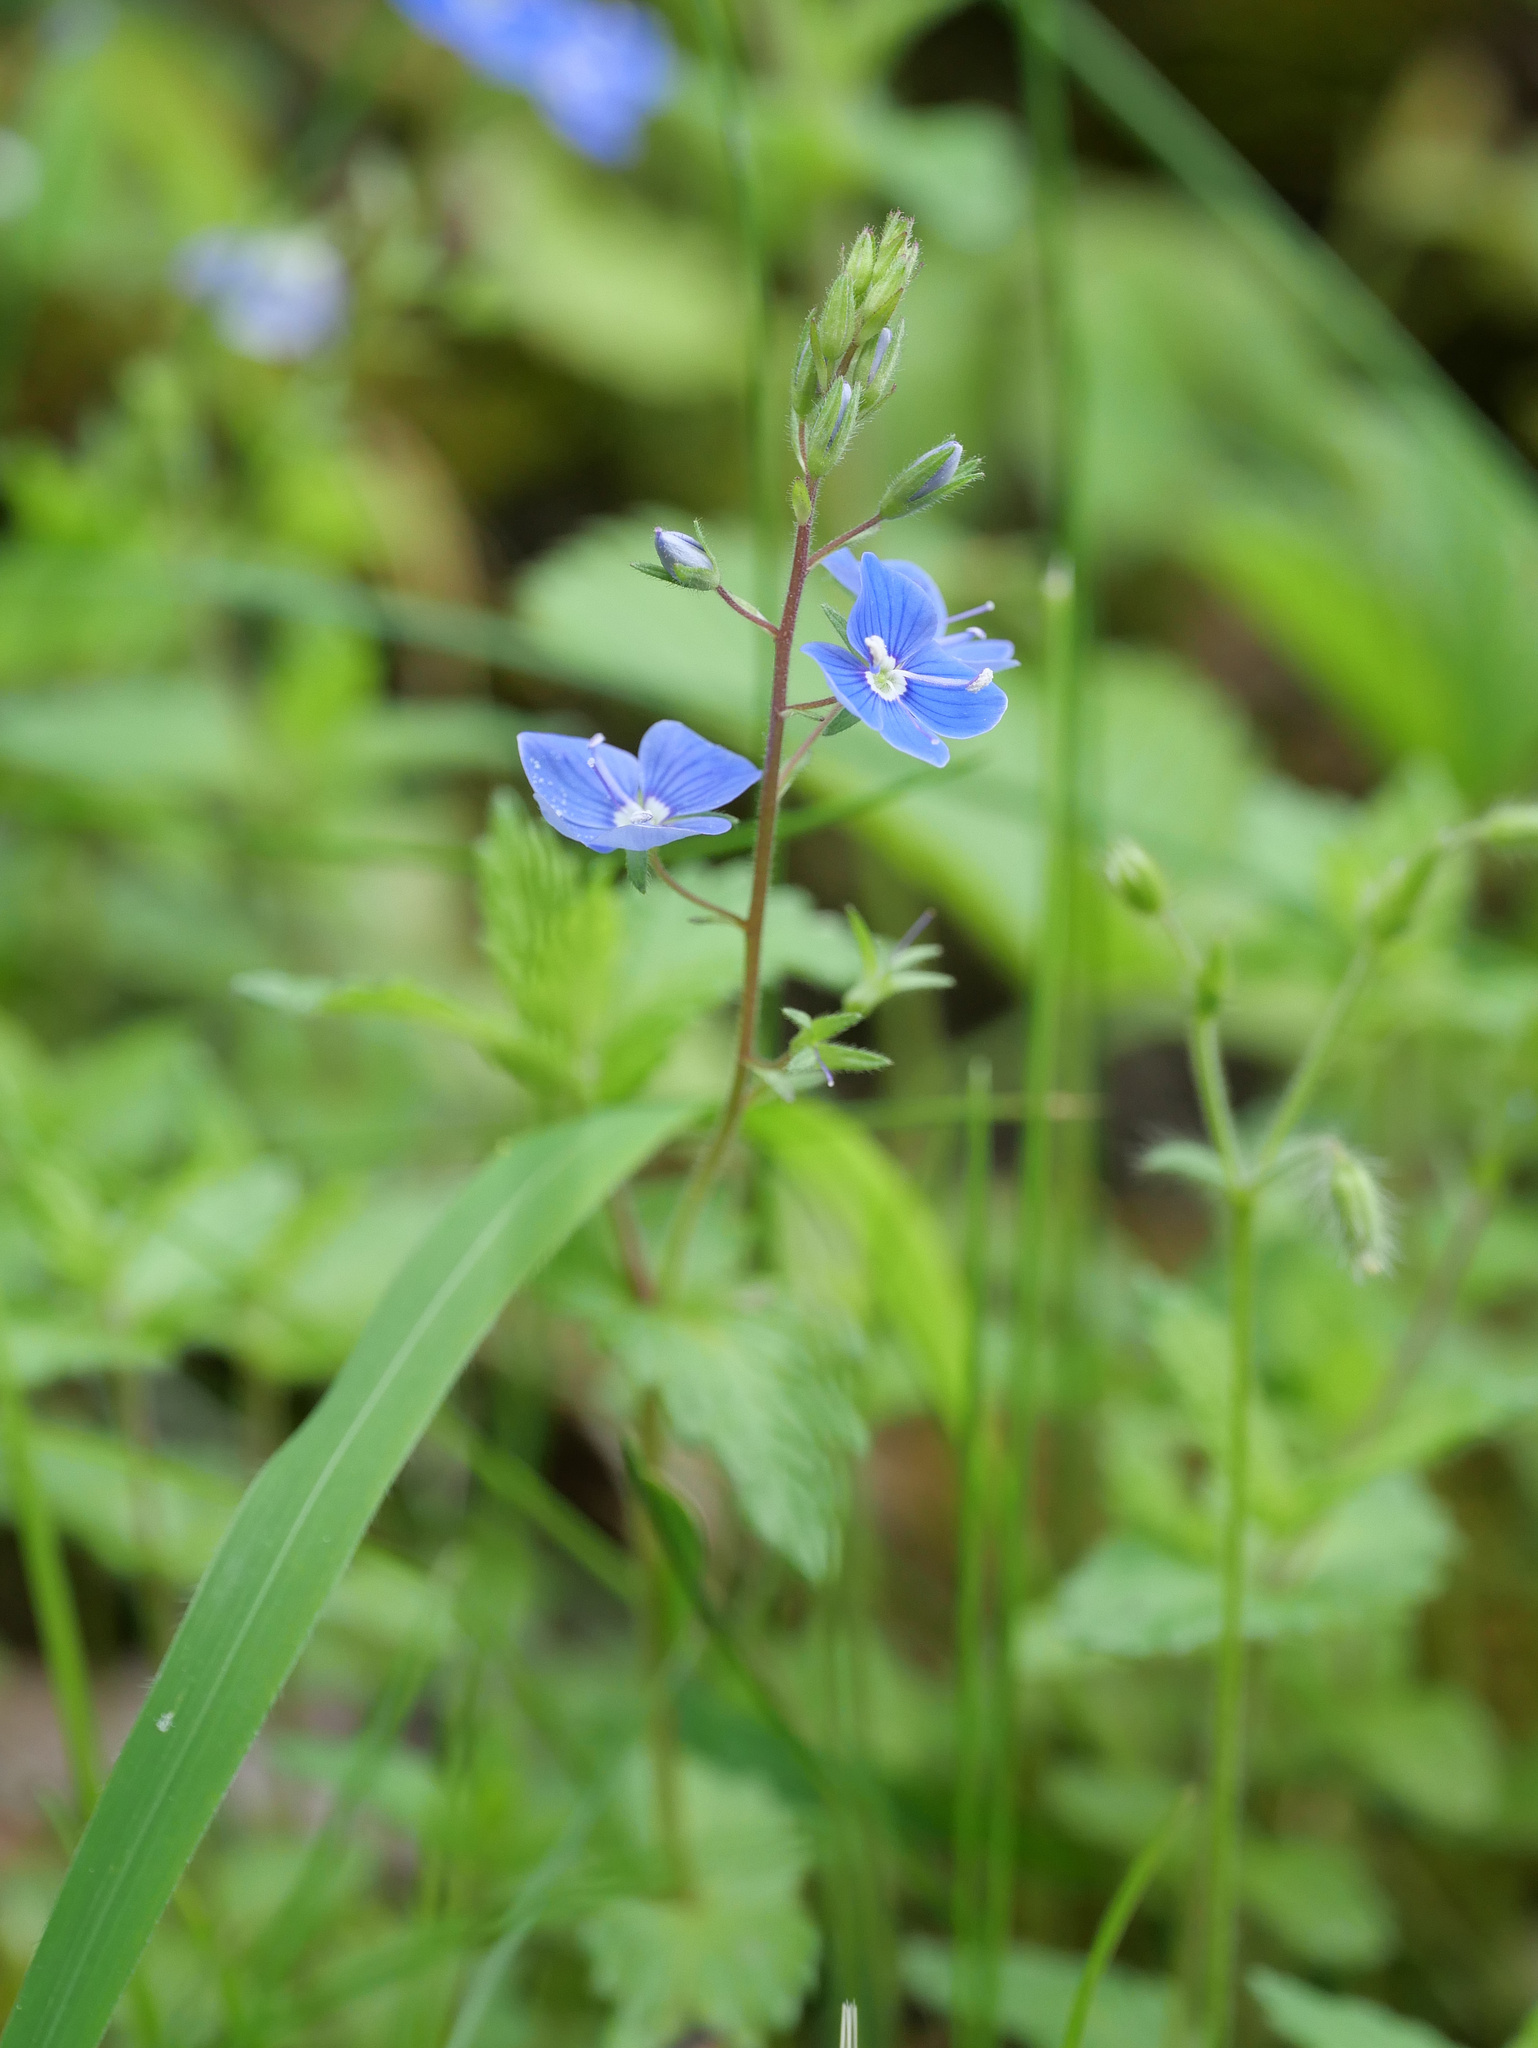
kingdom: Plantae
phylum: Tracheophyta
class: Magnoliopsida
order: Lamiales
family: Plantaginaceae
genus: Veronica
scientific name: Veronica chamaedrys
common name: Germander speedwell
